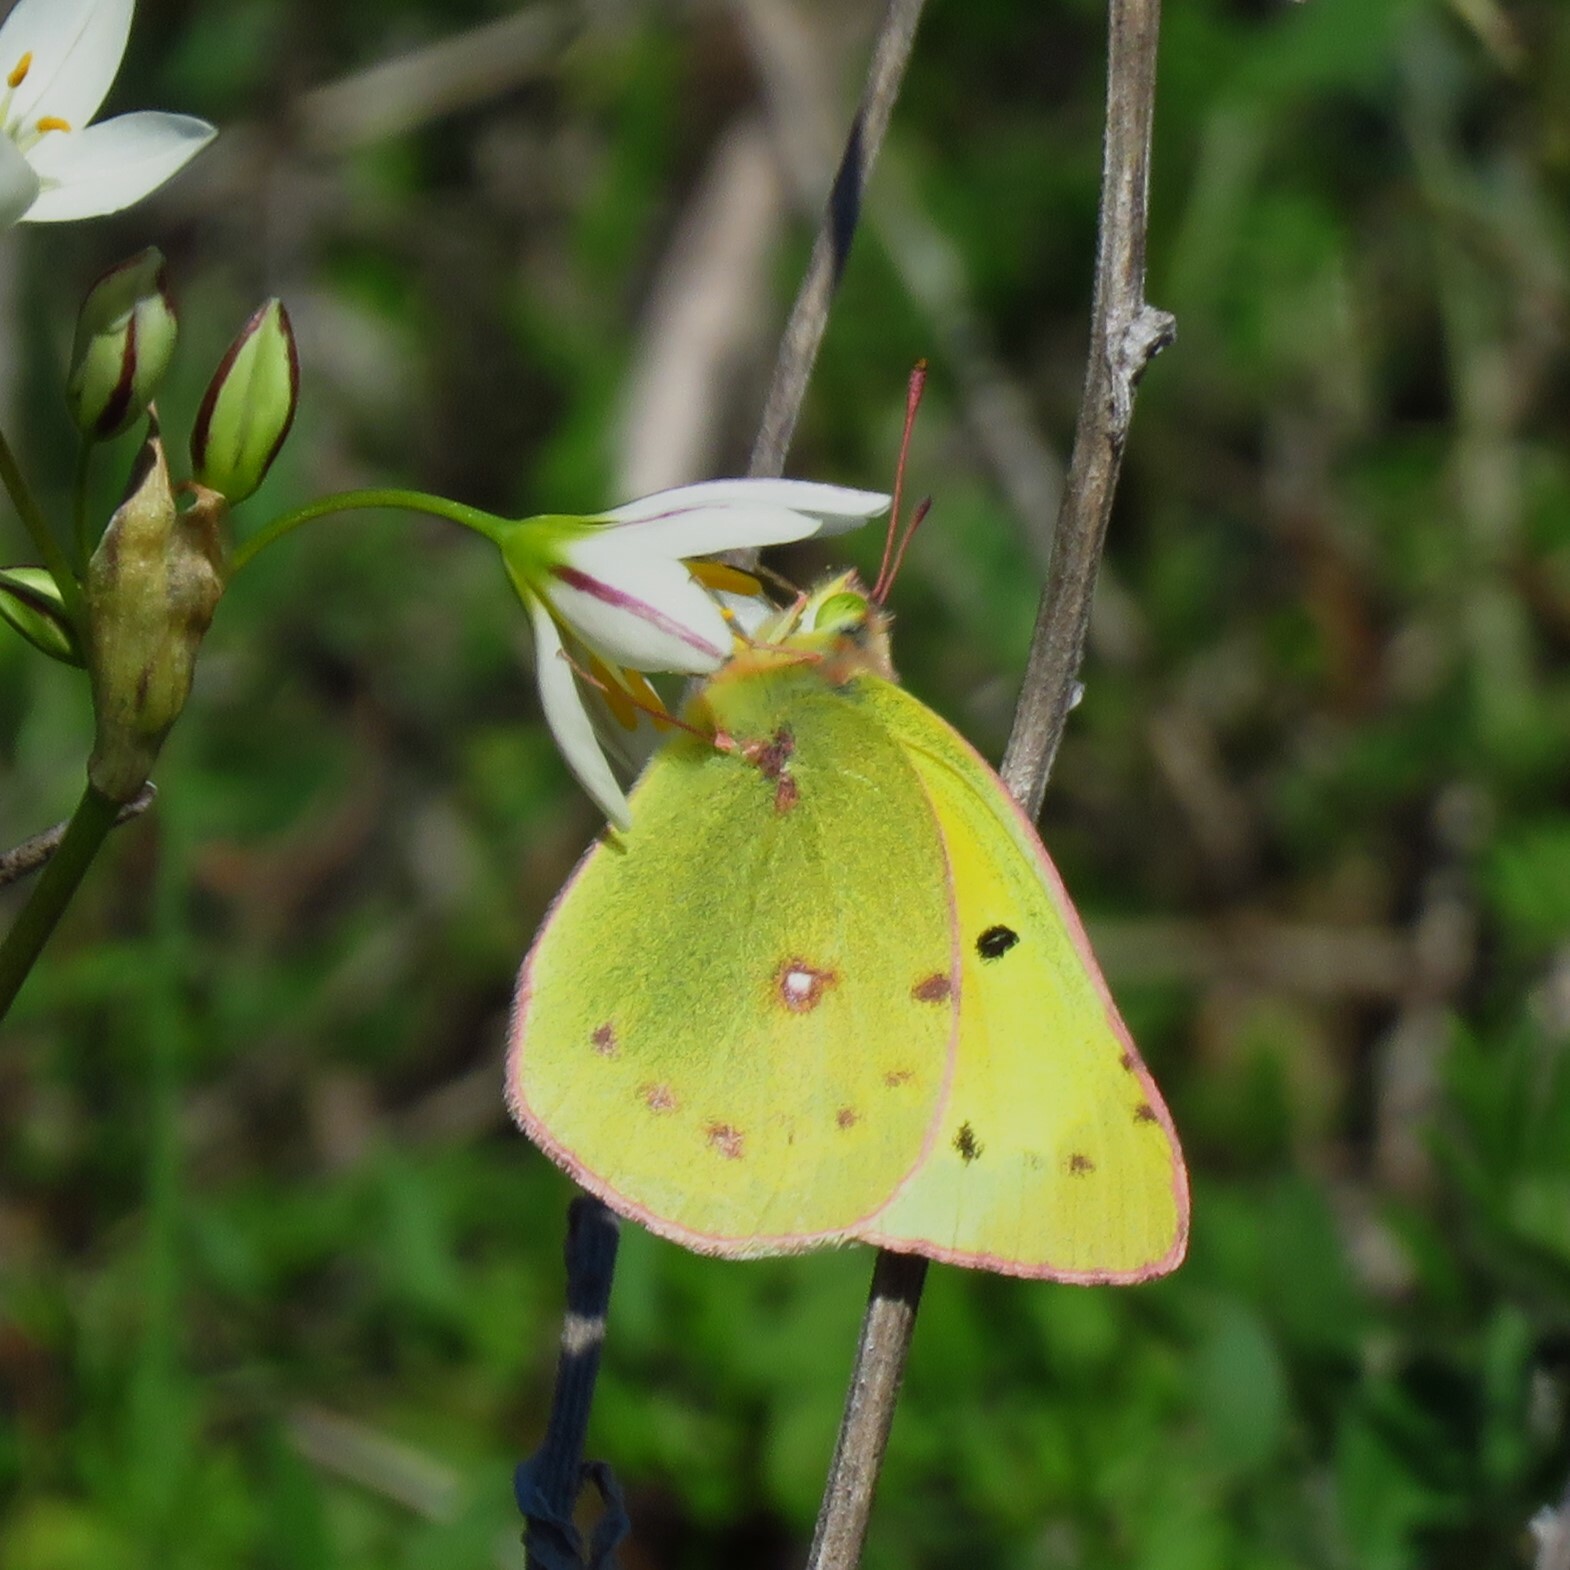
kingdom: Animalia
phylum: Arthropoda
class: Insecta
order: Lepidoptera
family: Pieridae
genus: Colias
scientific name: Colias eurytheme
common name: Alfalfa butterfly
